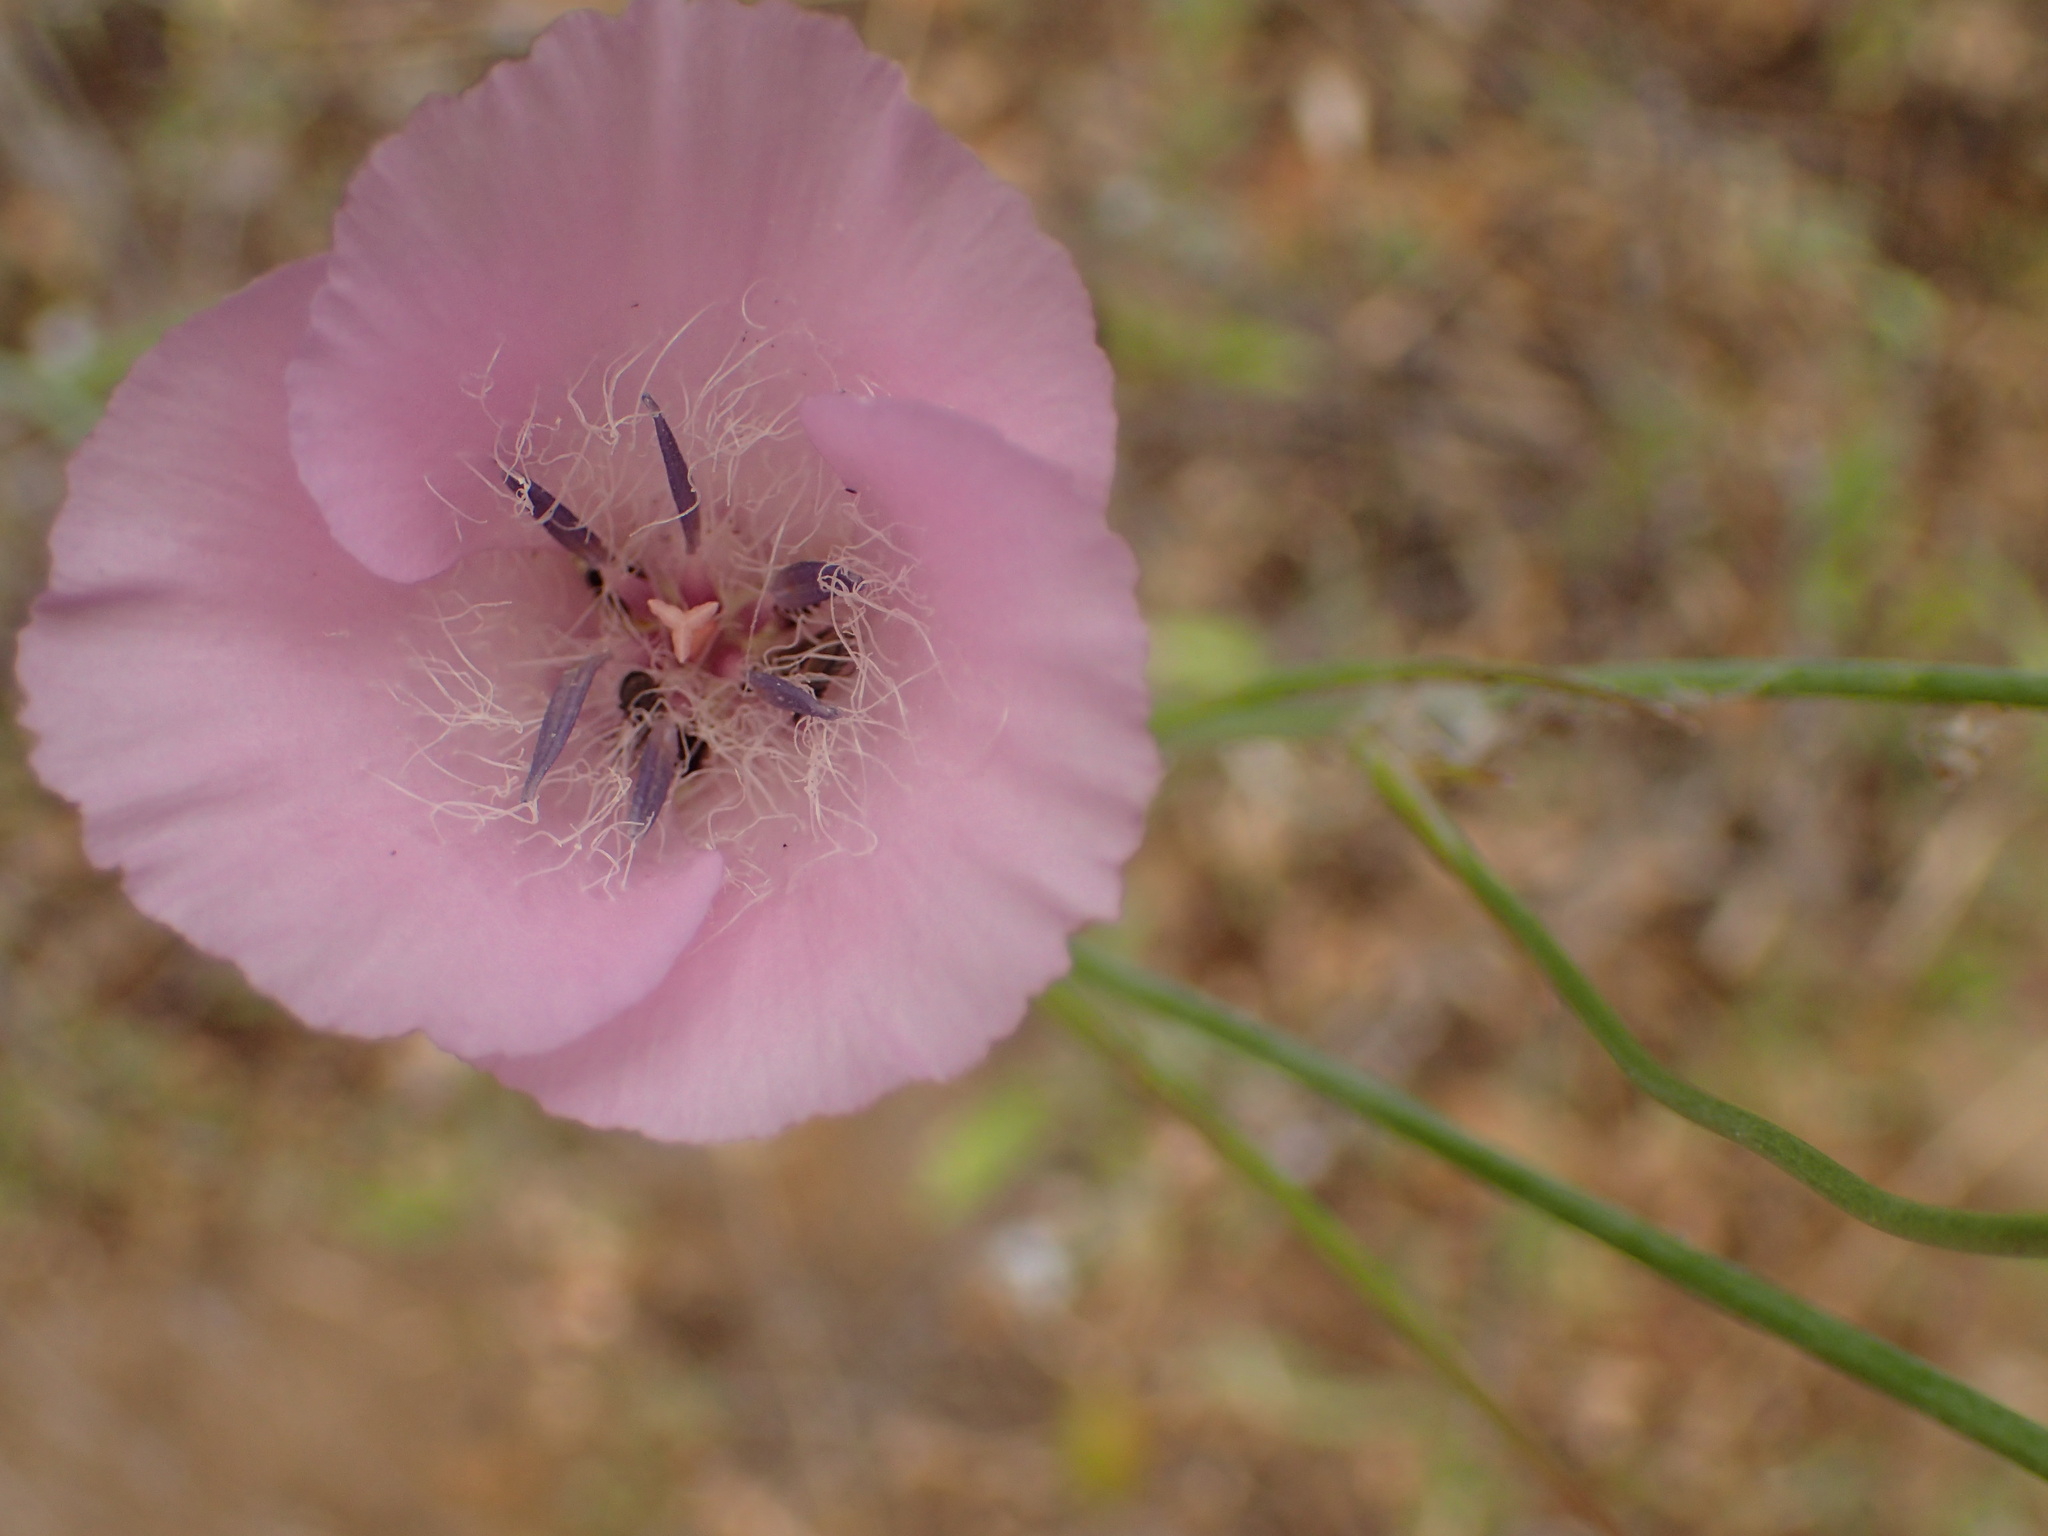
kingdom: Plantae
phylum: Tracheophyta
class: Liliopsida
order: Liliales
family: Liliaceae
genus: Calochortus
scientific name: Calochortus splendens
